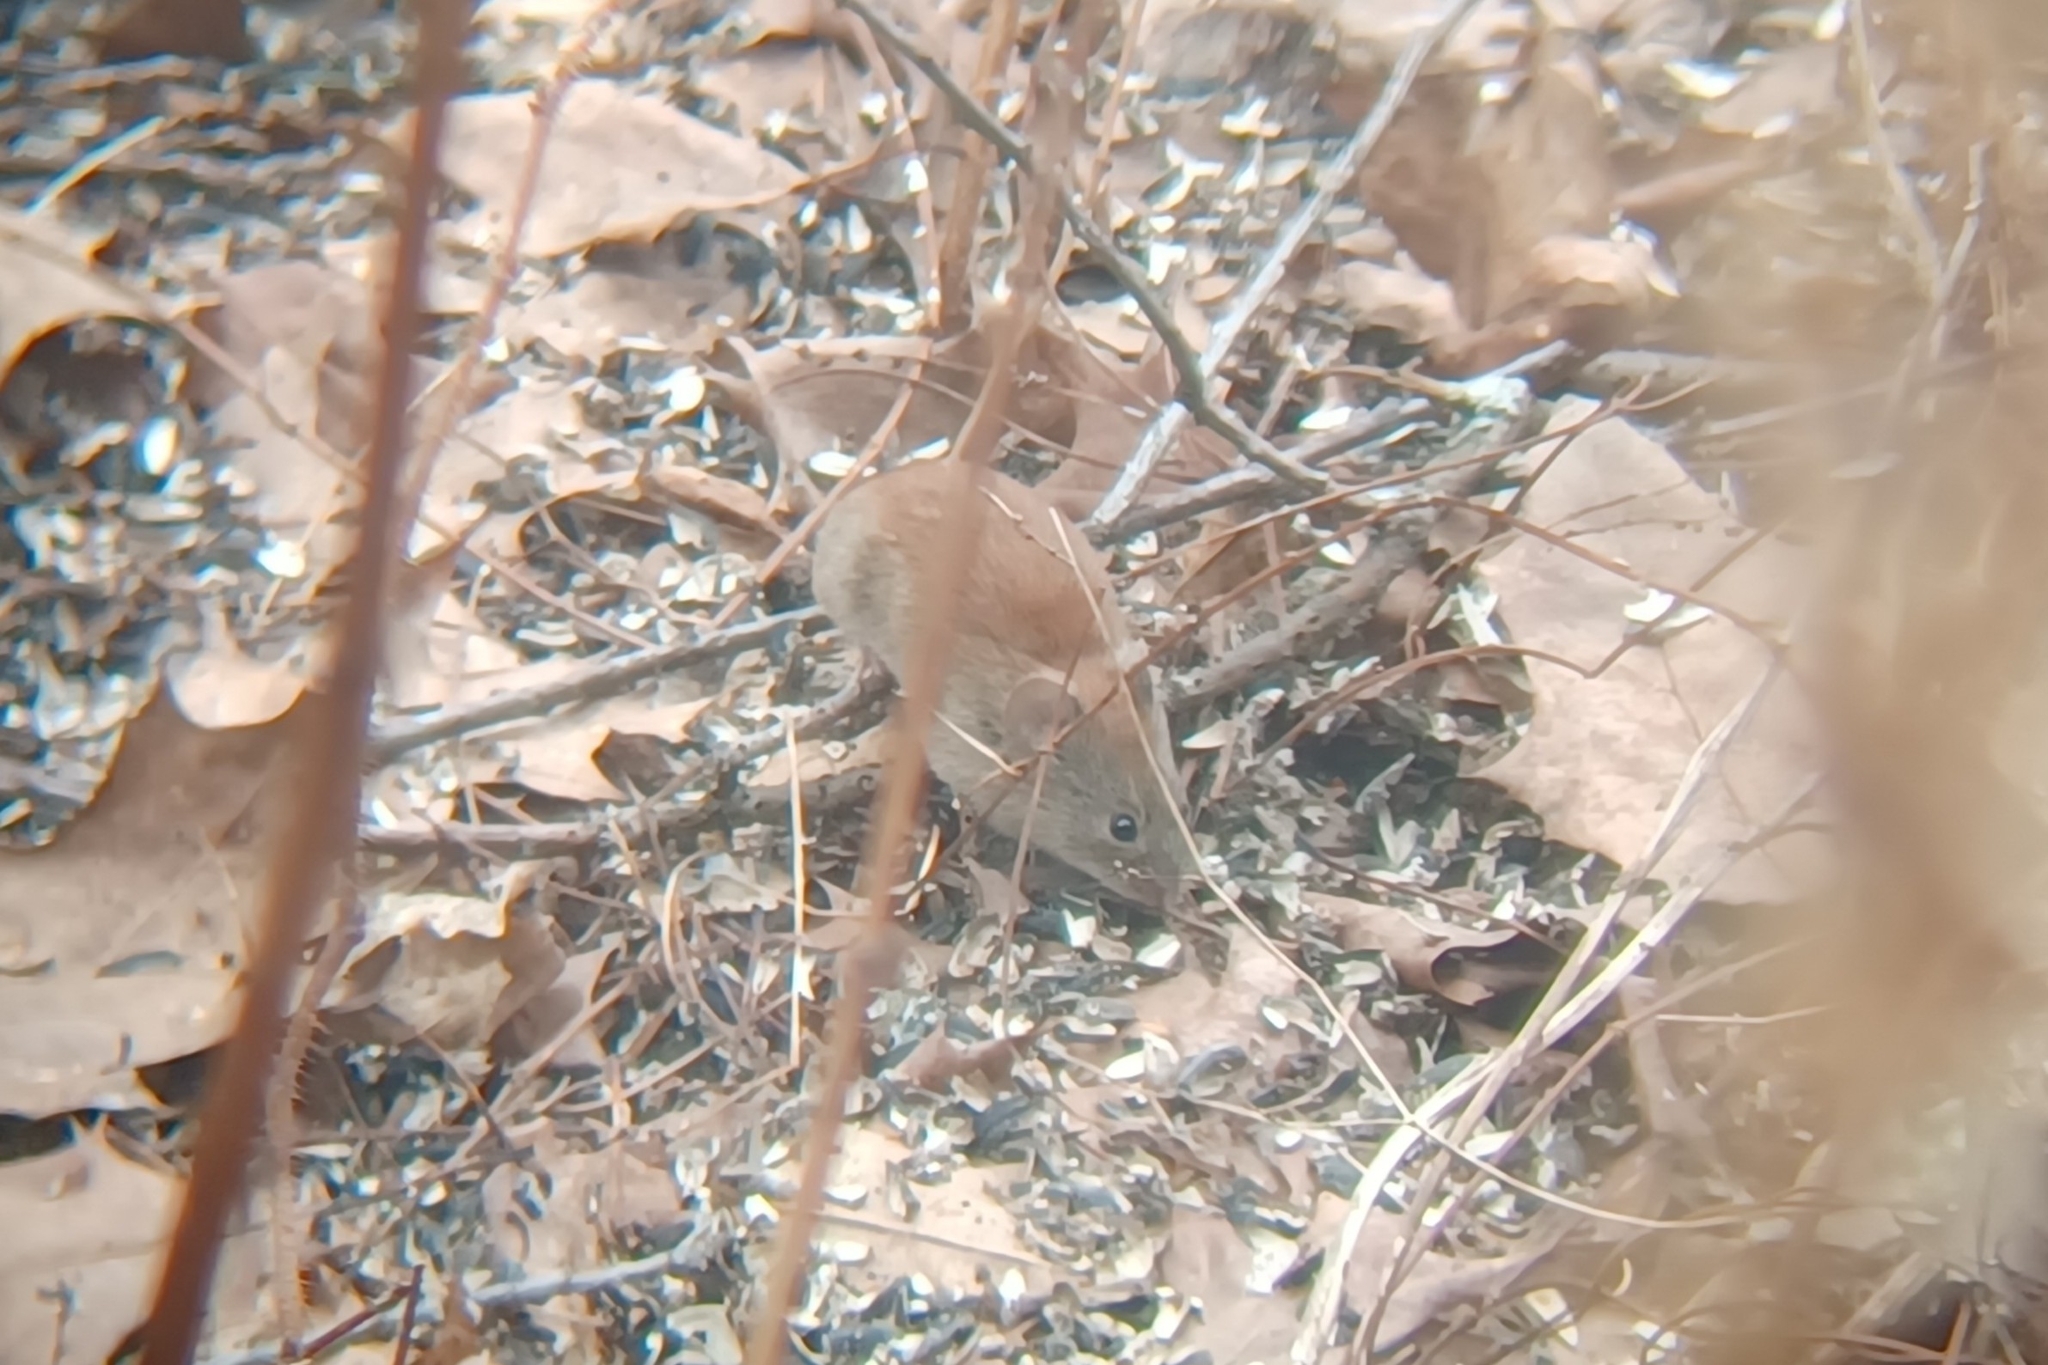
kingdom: Animalia
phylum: Chordata
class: Mammalia
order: Rodentia
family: Cricetidae
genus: Myodes
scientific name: Myodes gapperi
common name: Southern red-backed vole
